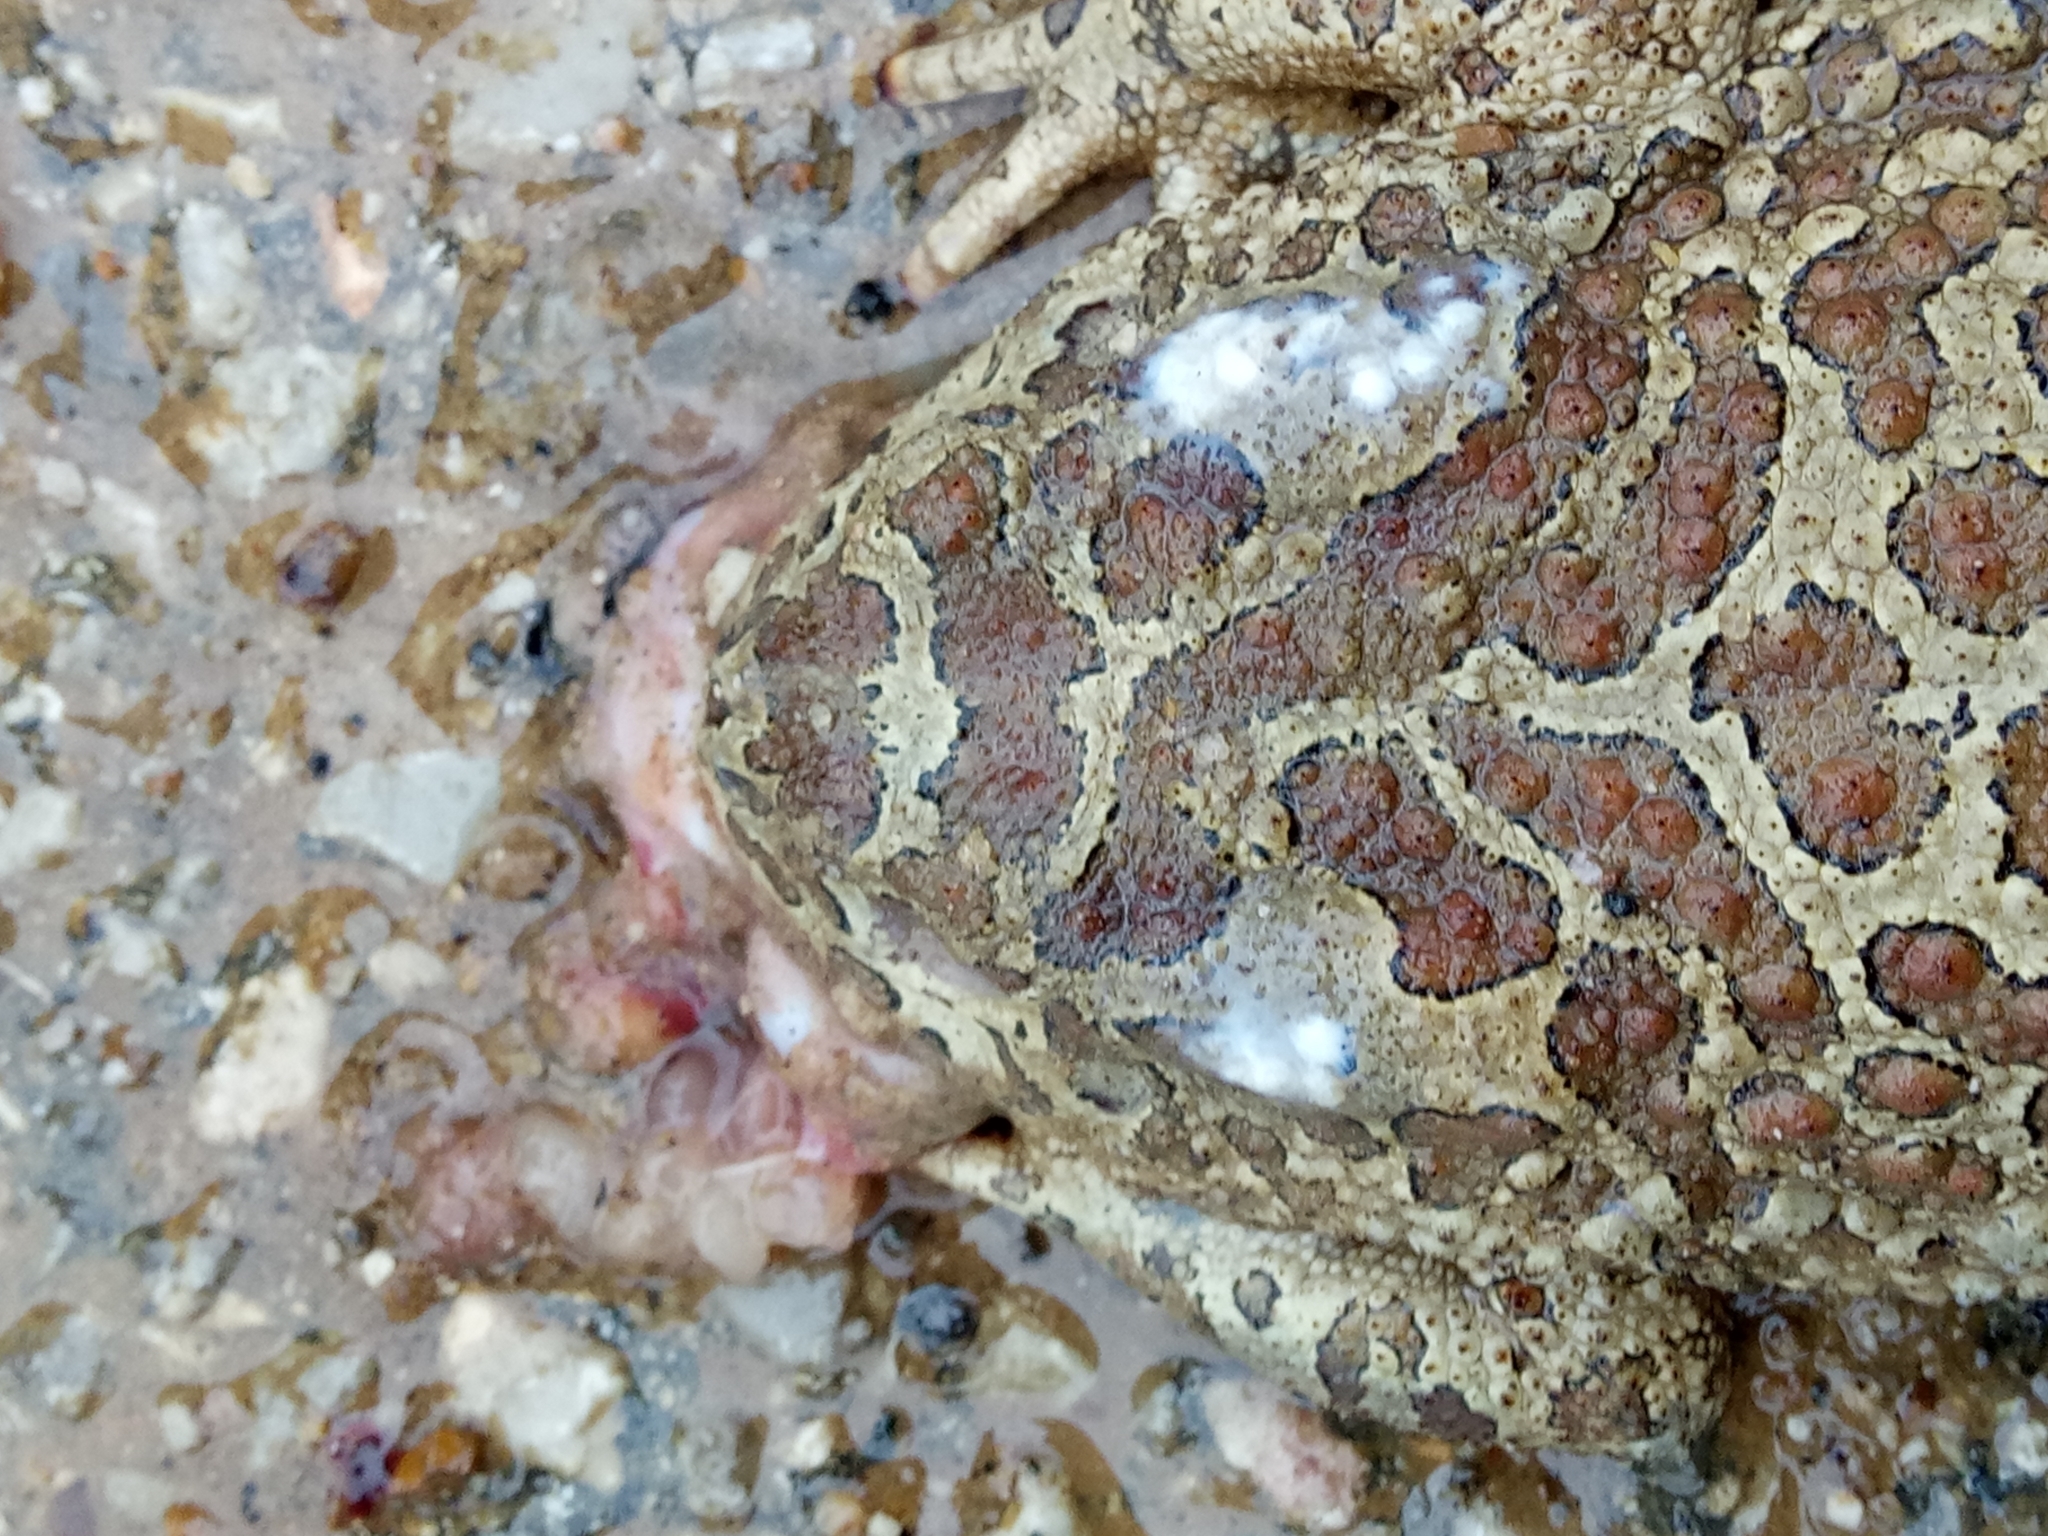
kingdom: Animalia
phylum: Chordata
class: Amphibia
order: Anura
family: Bufonidae
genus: Sclerophrys
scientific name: Sclerophrys mauritanica
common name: Berber toad
